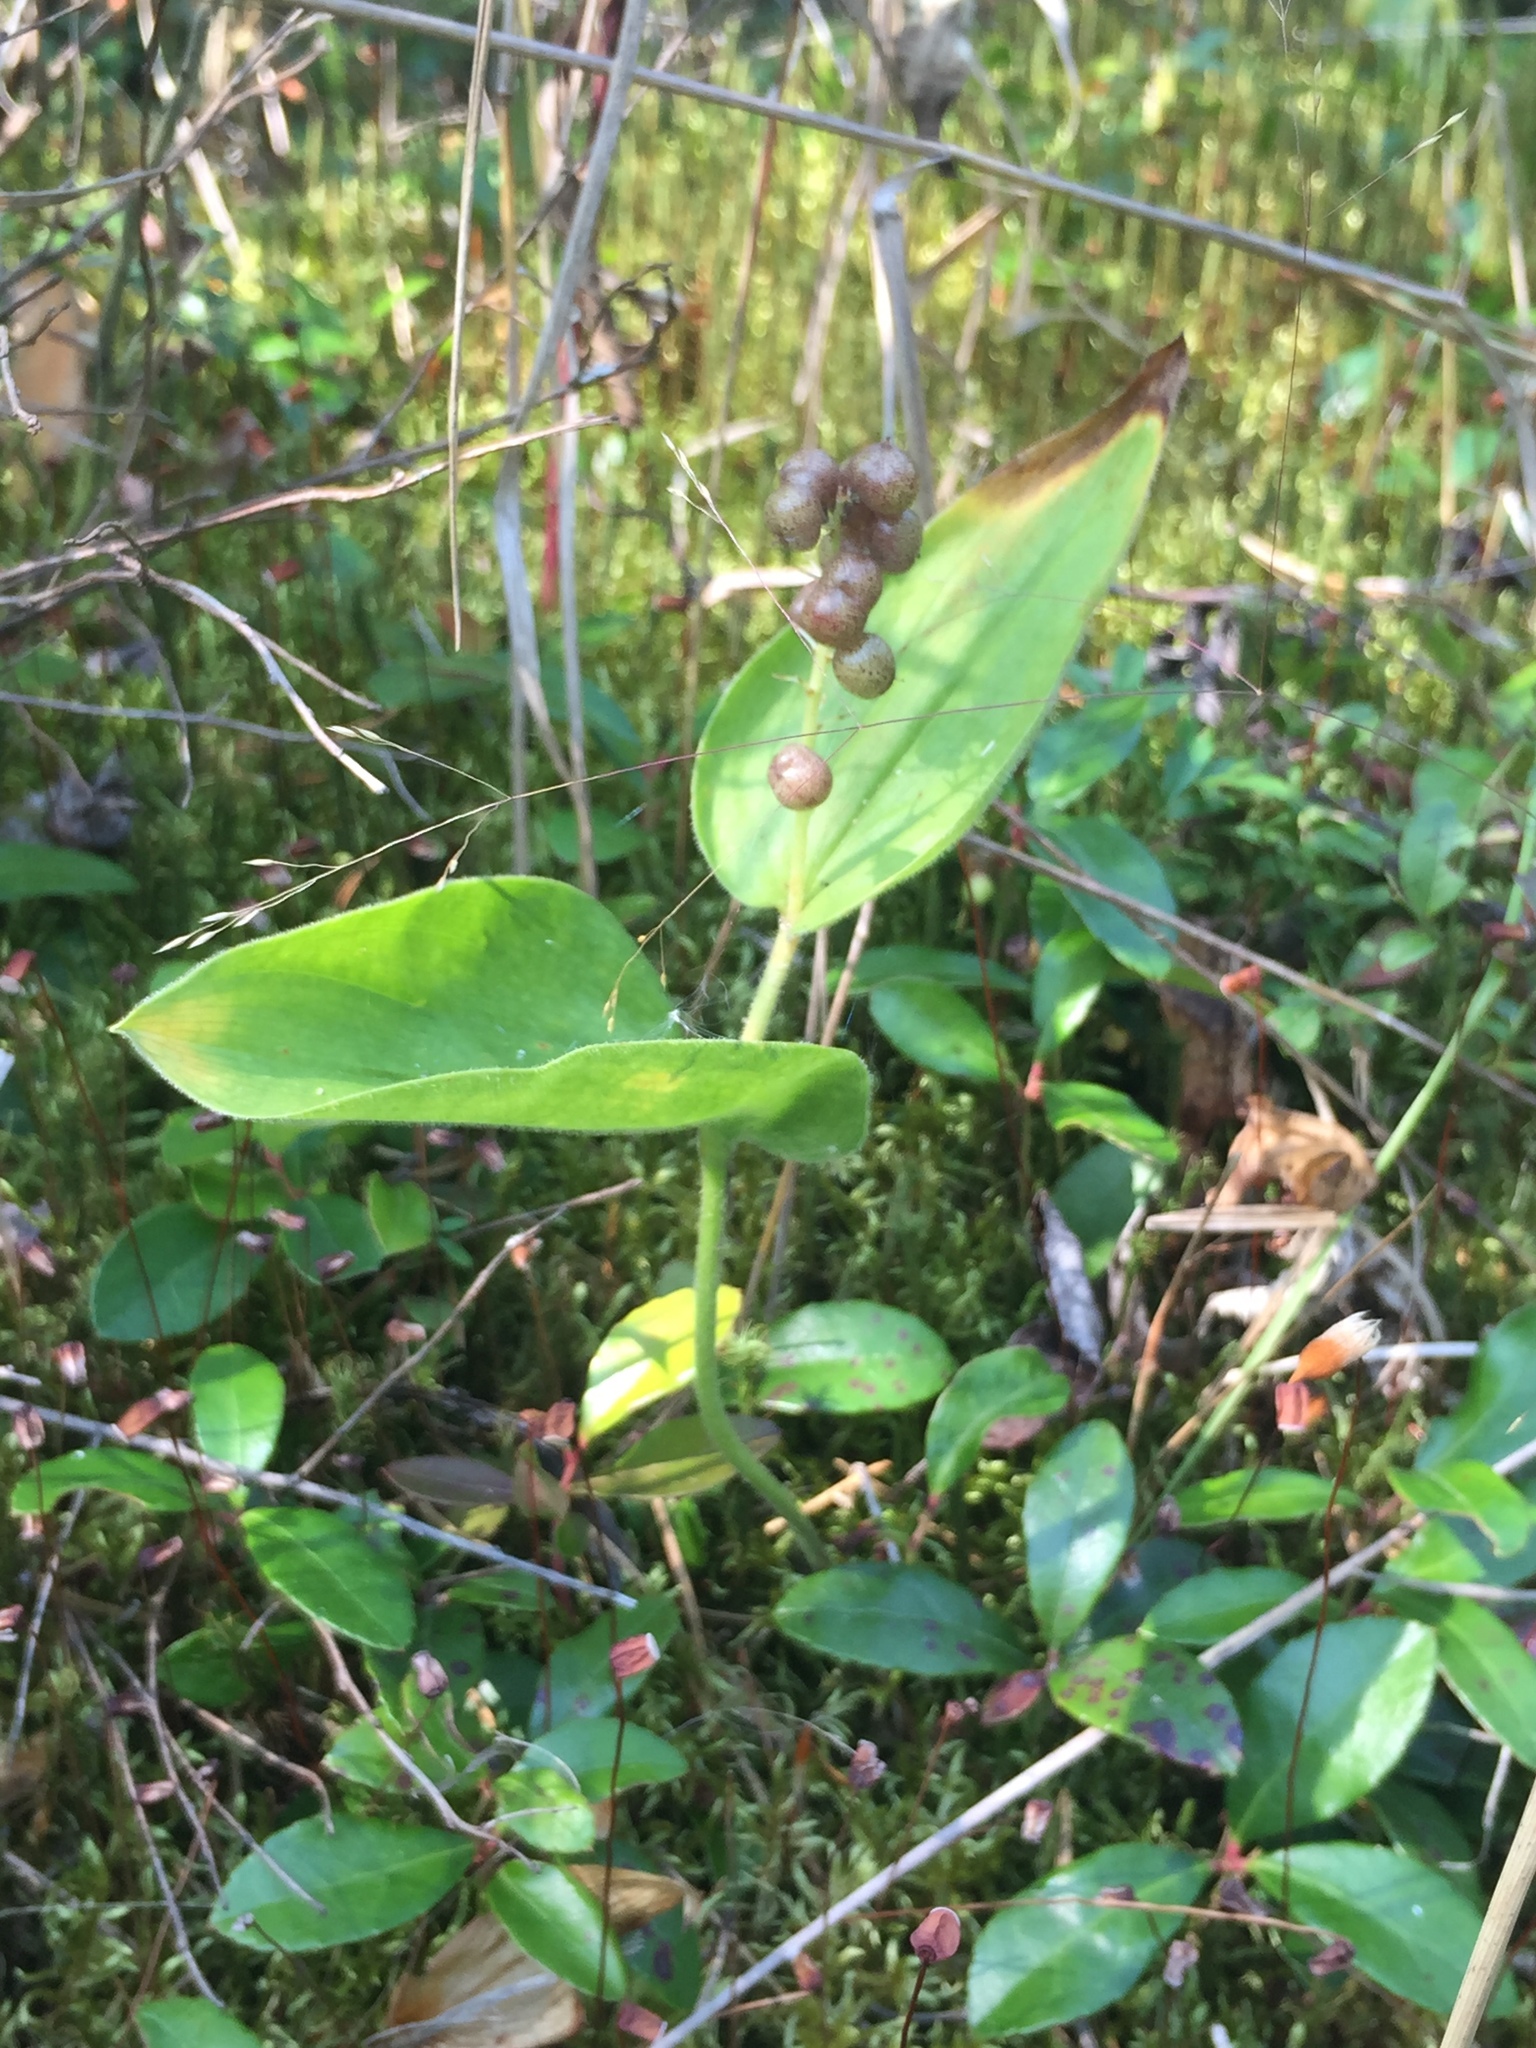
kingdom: Plantae
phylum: Tracheophyta
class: Liliopsida
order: Asparagales
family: Asparagaceae
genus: Maianthemum
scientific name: Maianthemum canadense
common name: False lily-of-the-valley
